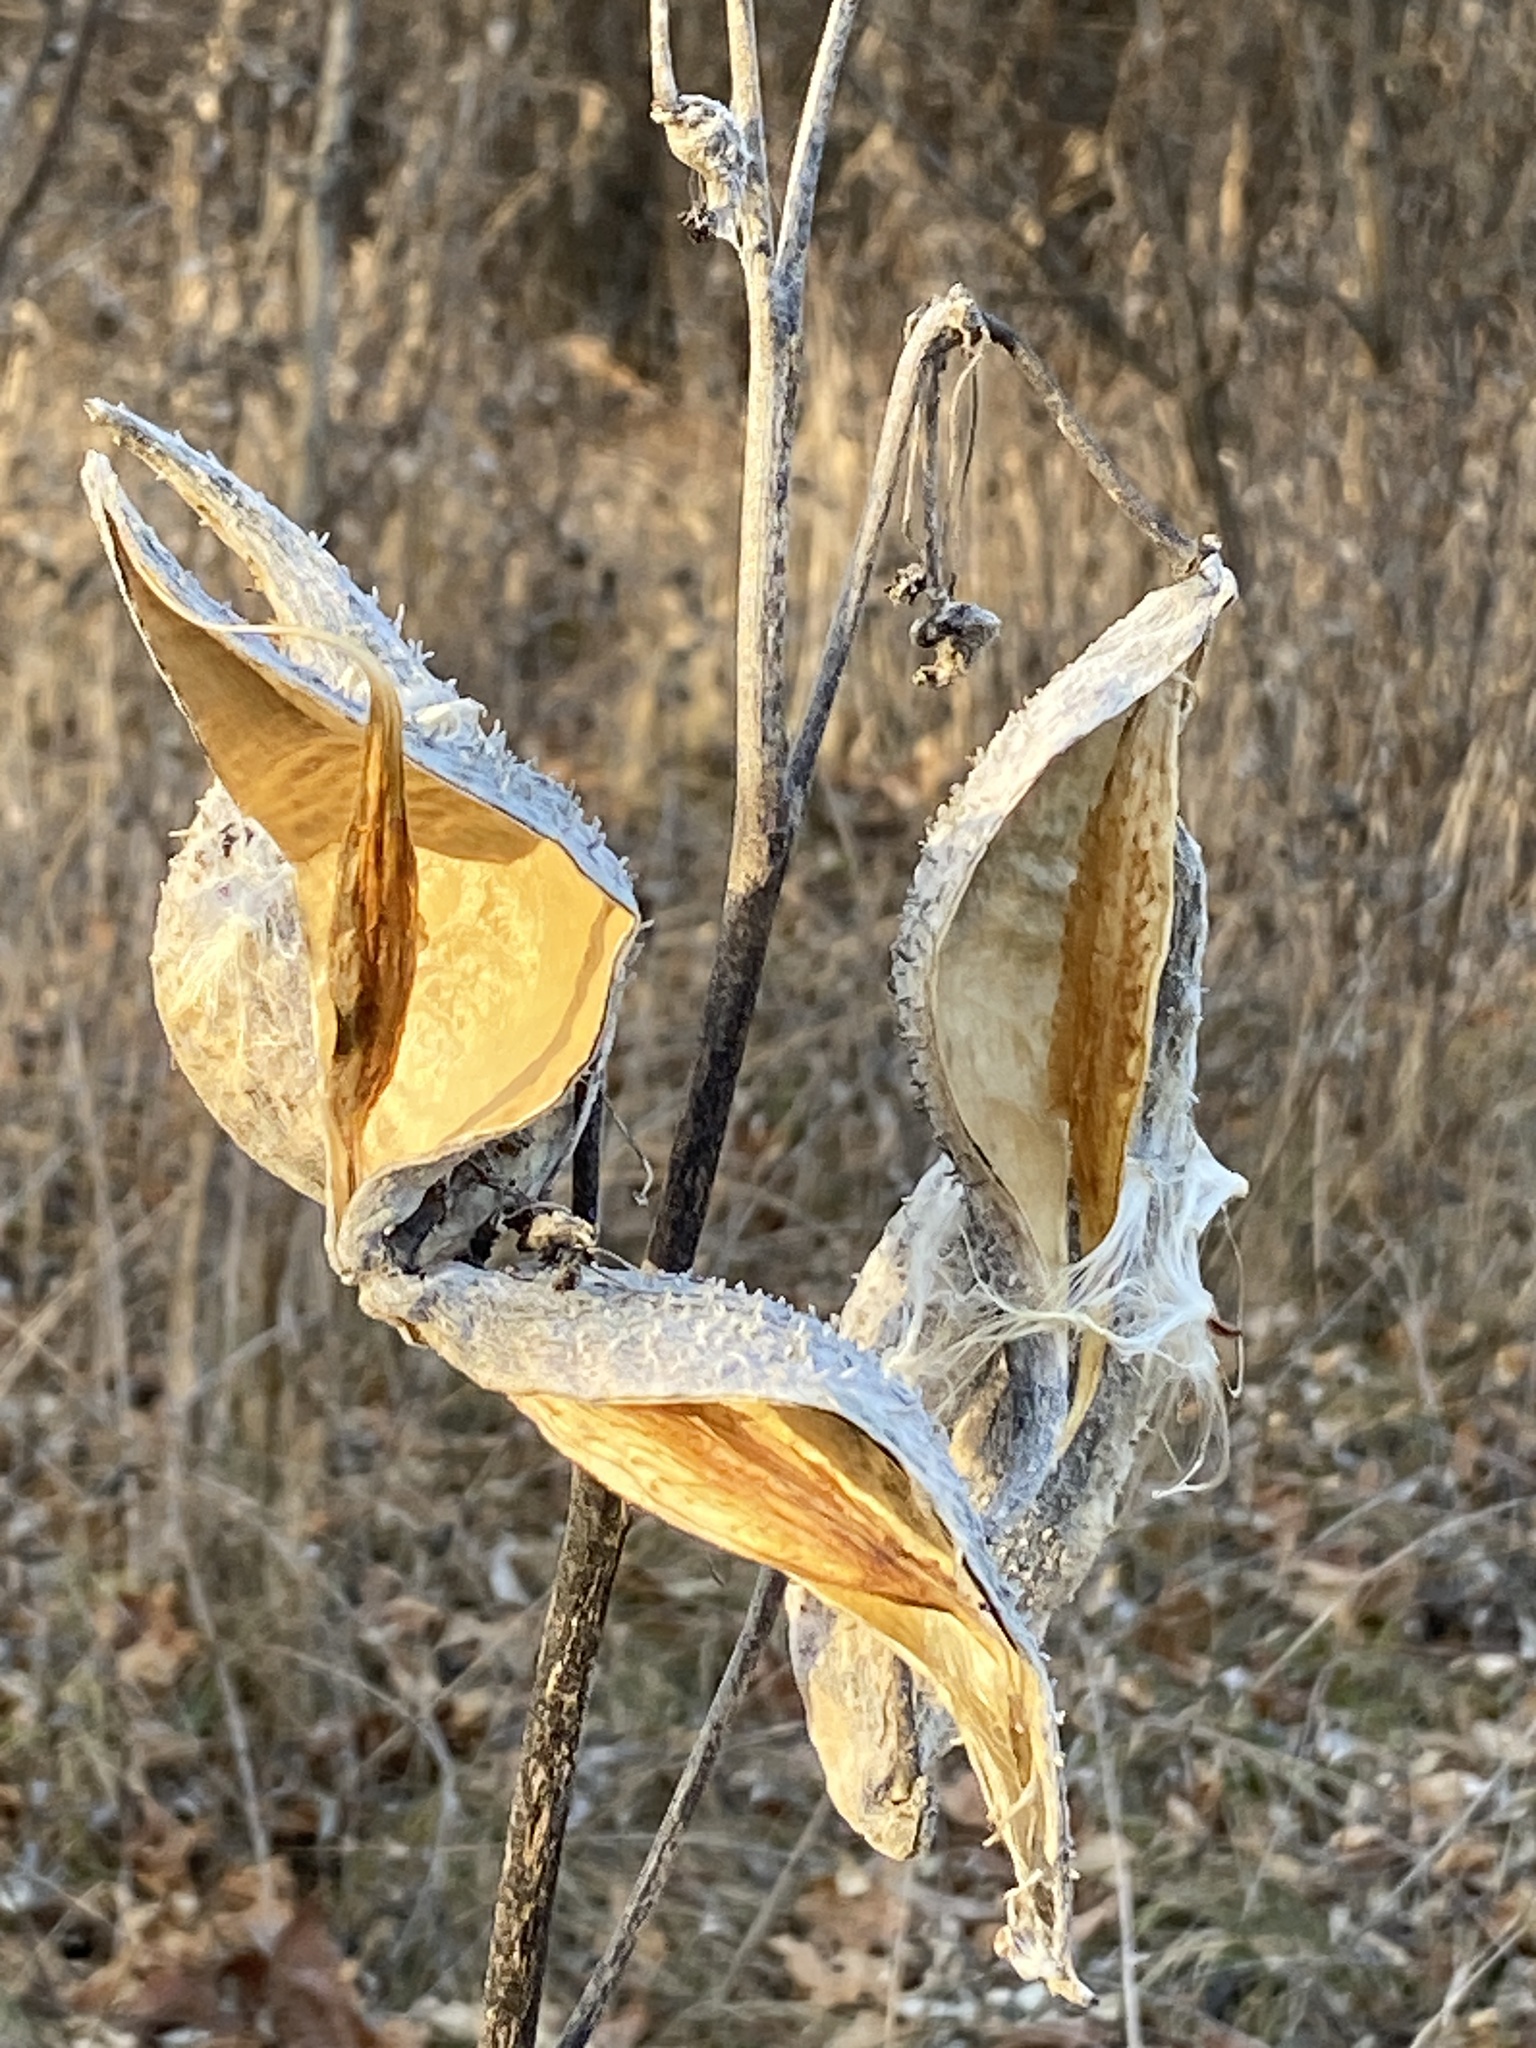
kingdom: Plantae
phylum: Tracheophyta
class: Magnoliopsida
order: Gentianales
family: Apocynaceae
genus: Asclepias
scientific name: Asclepias syriaca
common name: Common milkweed
